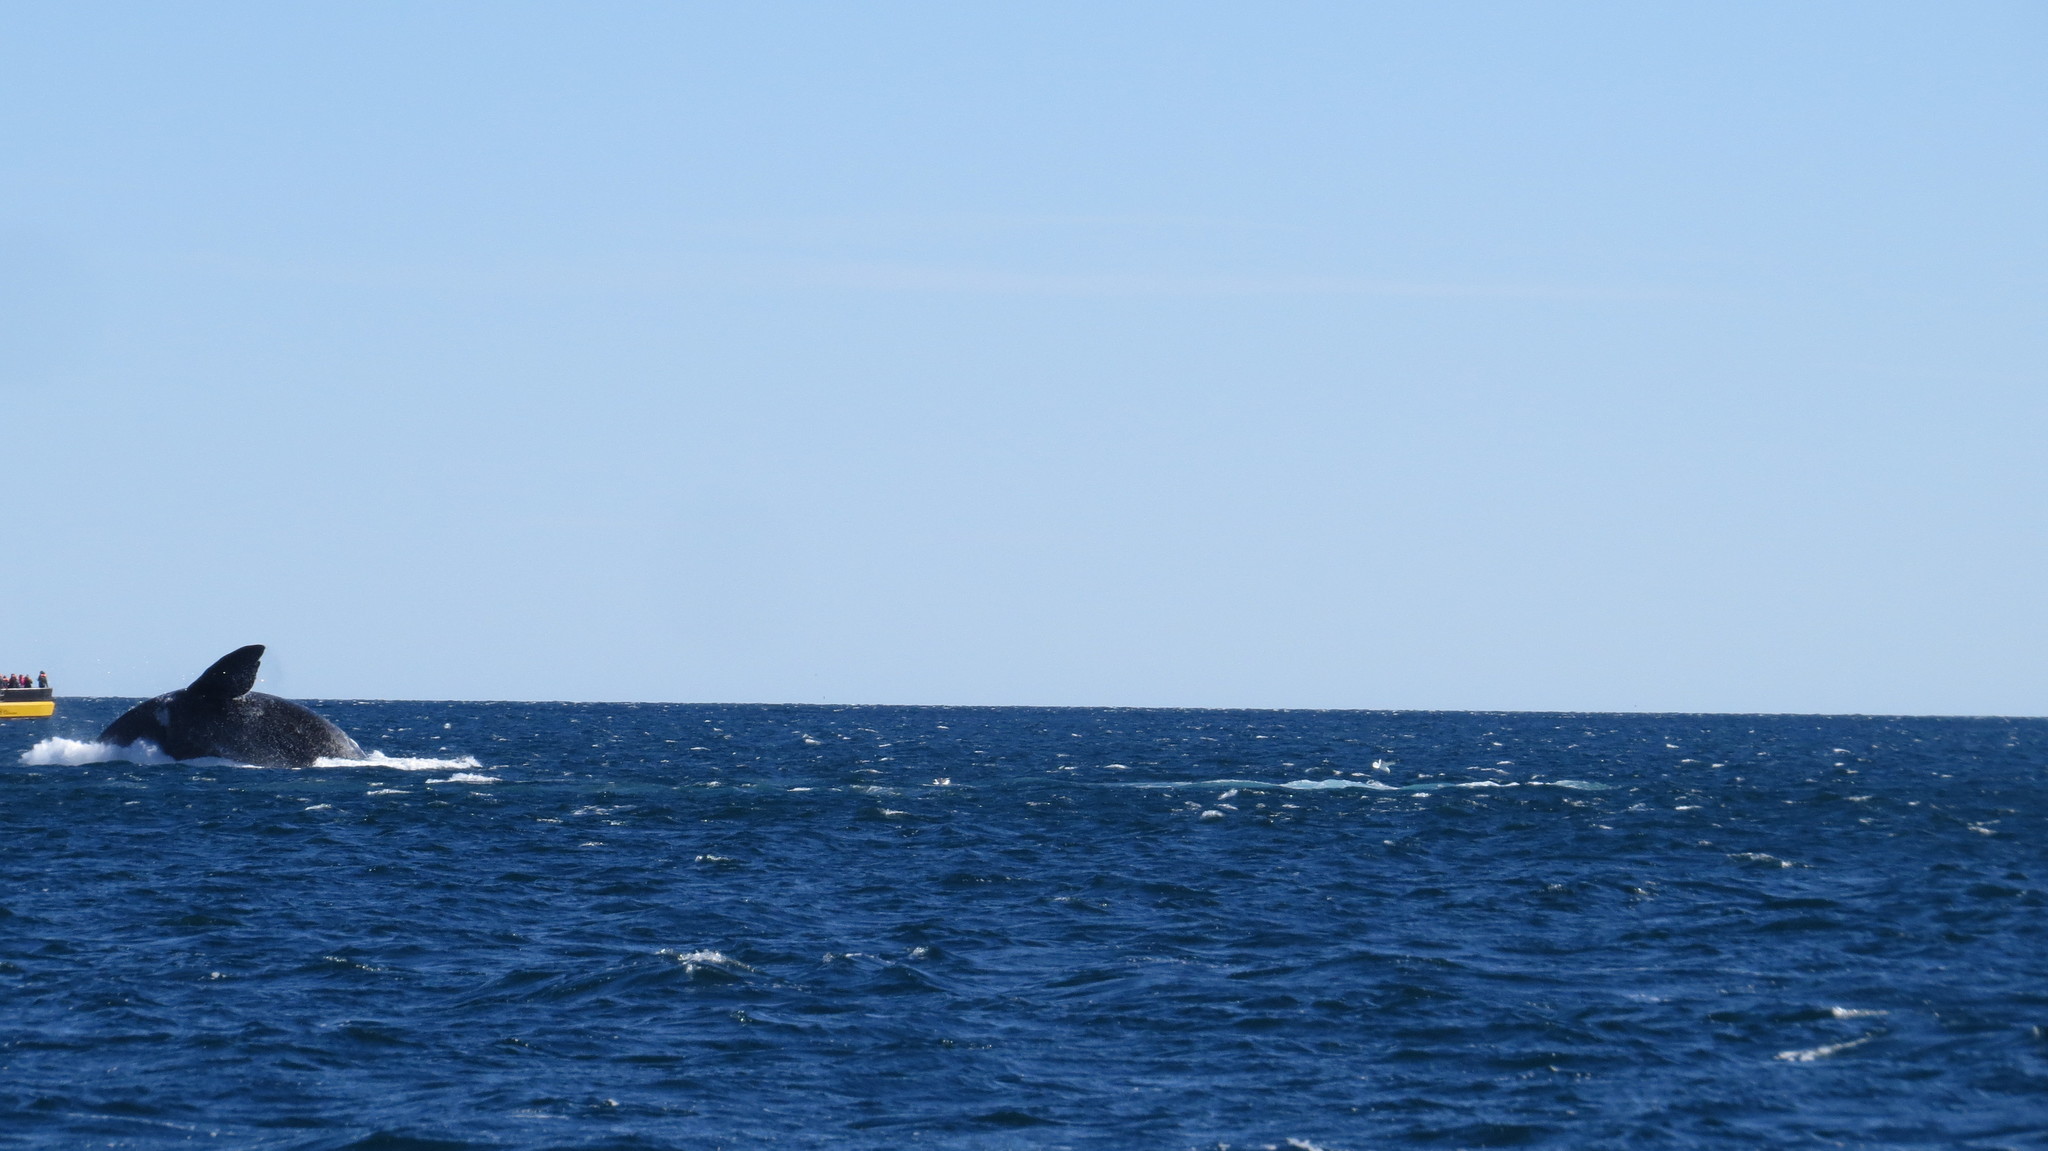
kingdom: Animalia
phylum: Chordata
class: Mammalia
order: Cetacea
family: Balaenidae
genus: Eubalaena
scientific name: Eubalaena australis
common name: Southern right whale
